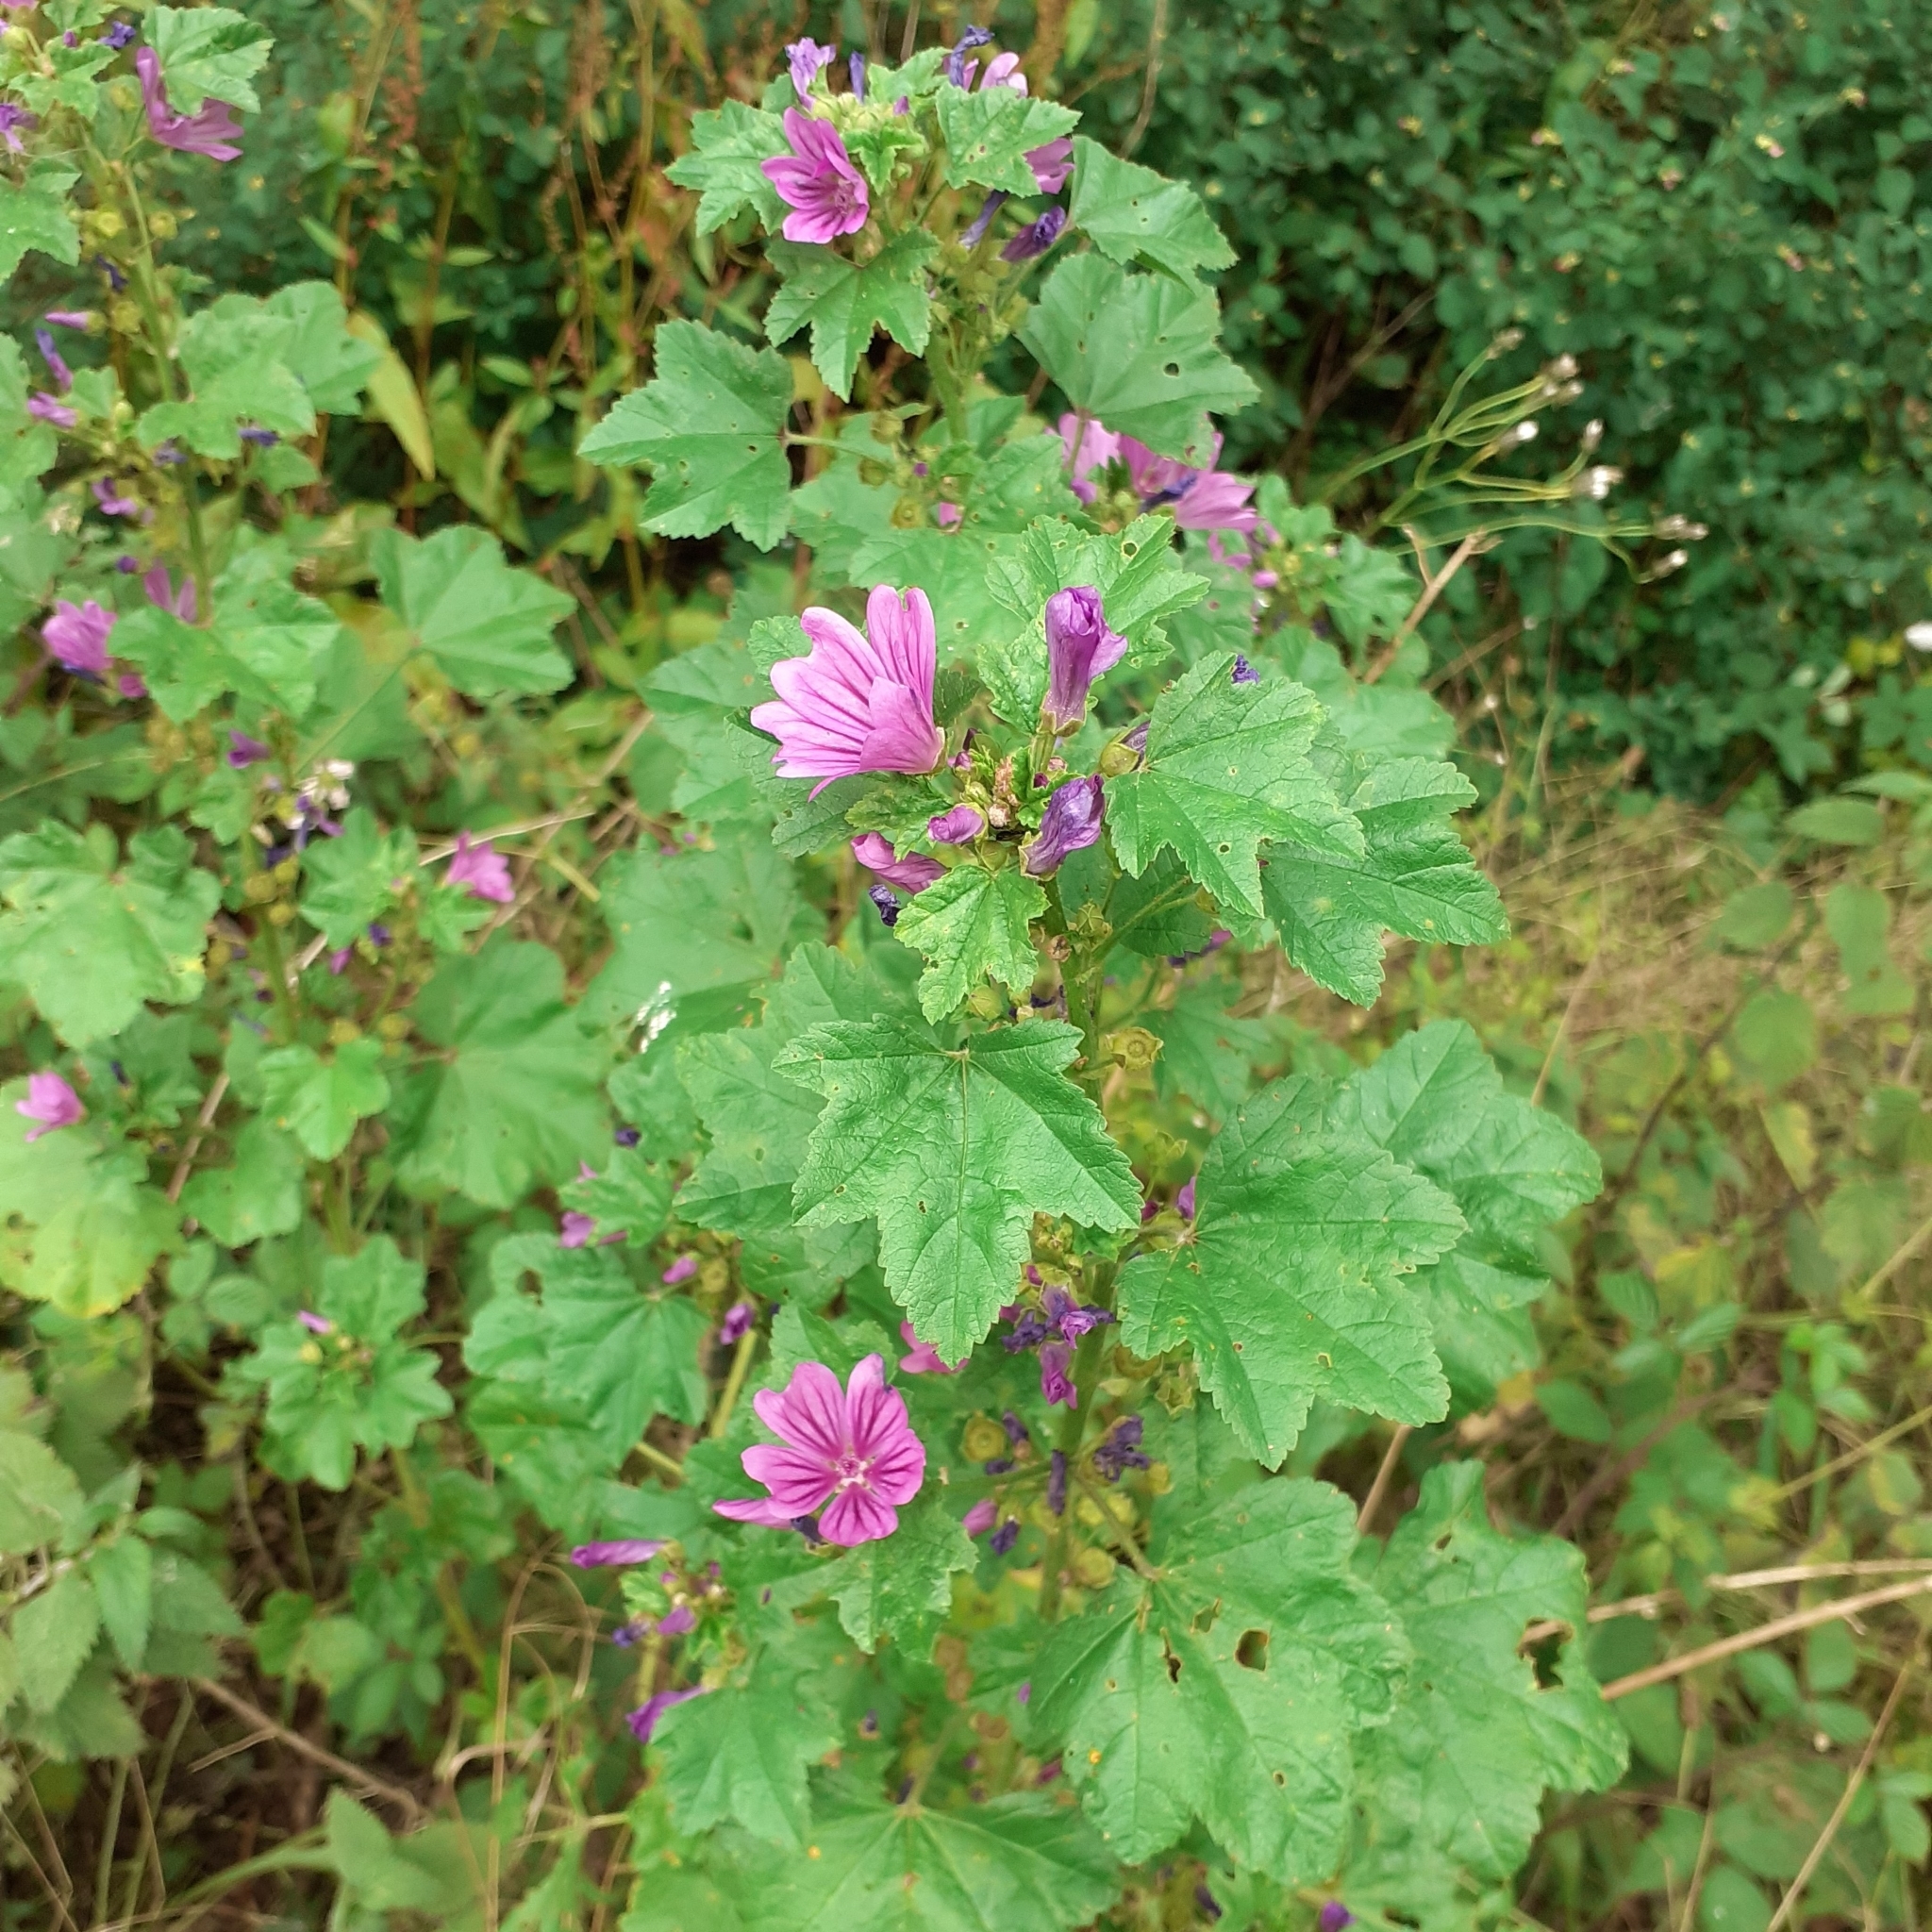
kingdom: Plantae
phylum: Tracheophyta
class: Magnoliopsida
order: Malvales
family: Malvaceae
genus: Malva
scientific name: Malva sylvestris
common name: Common mallow
